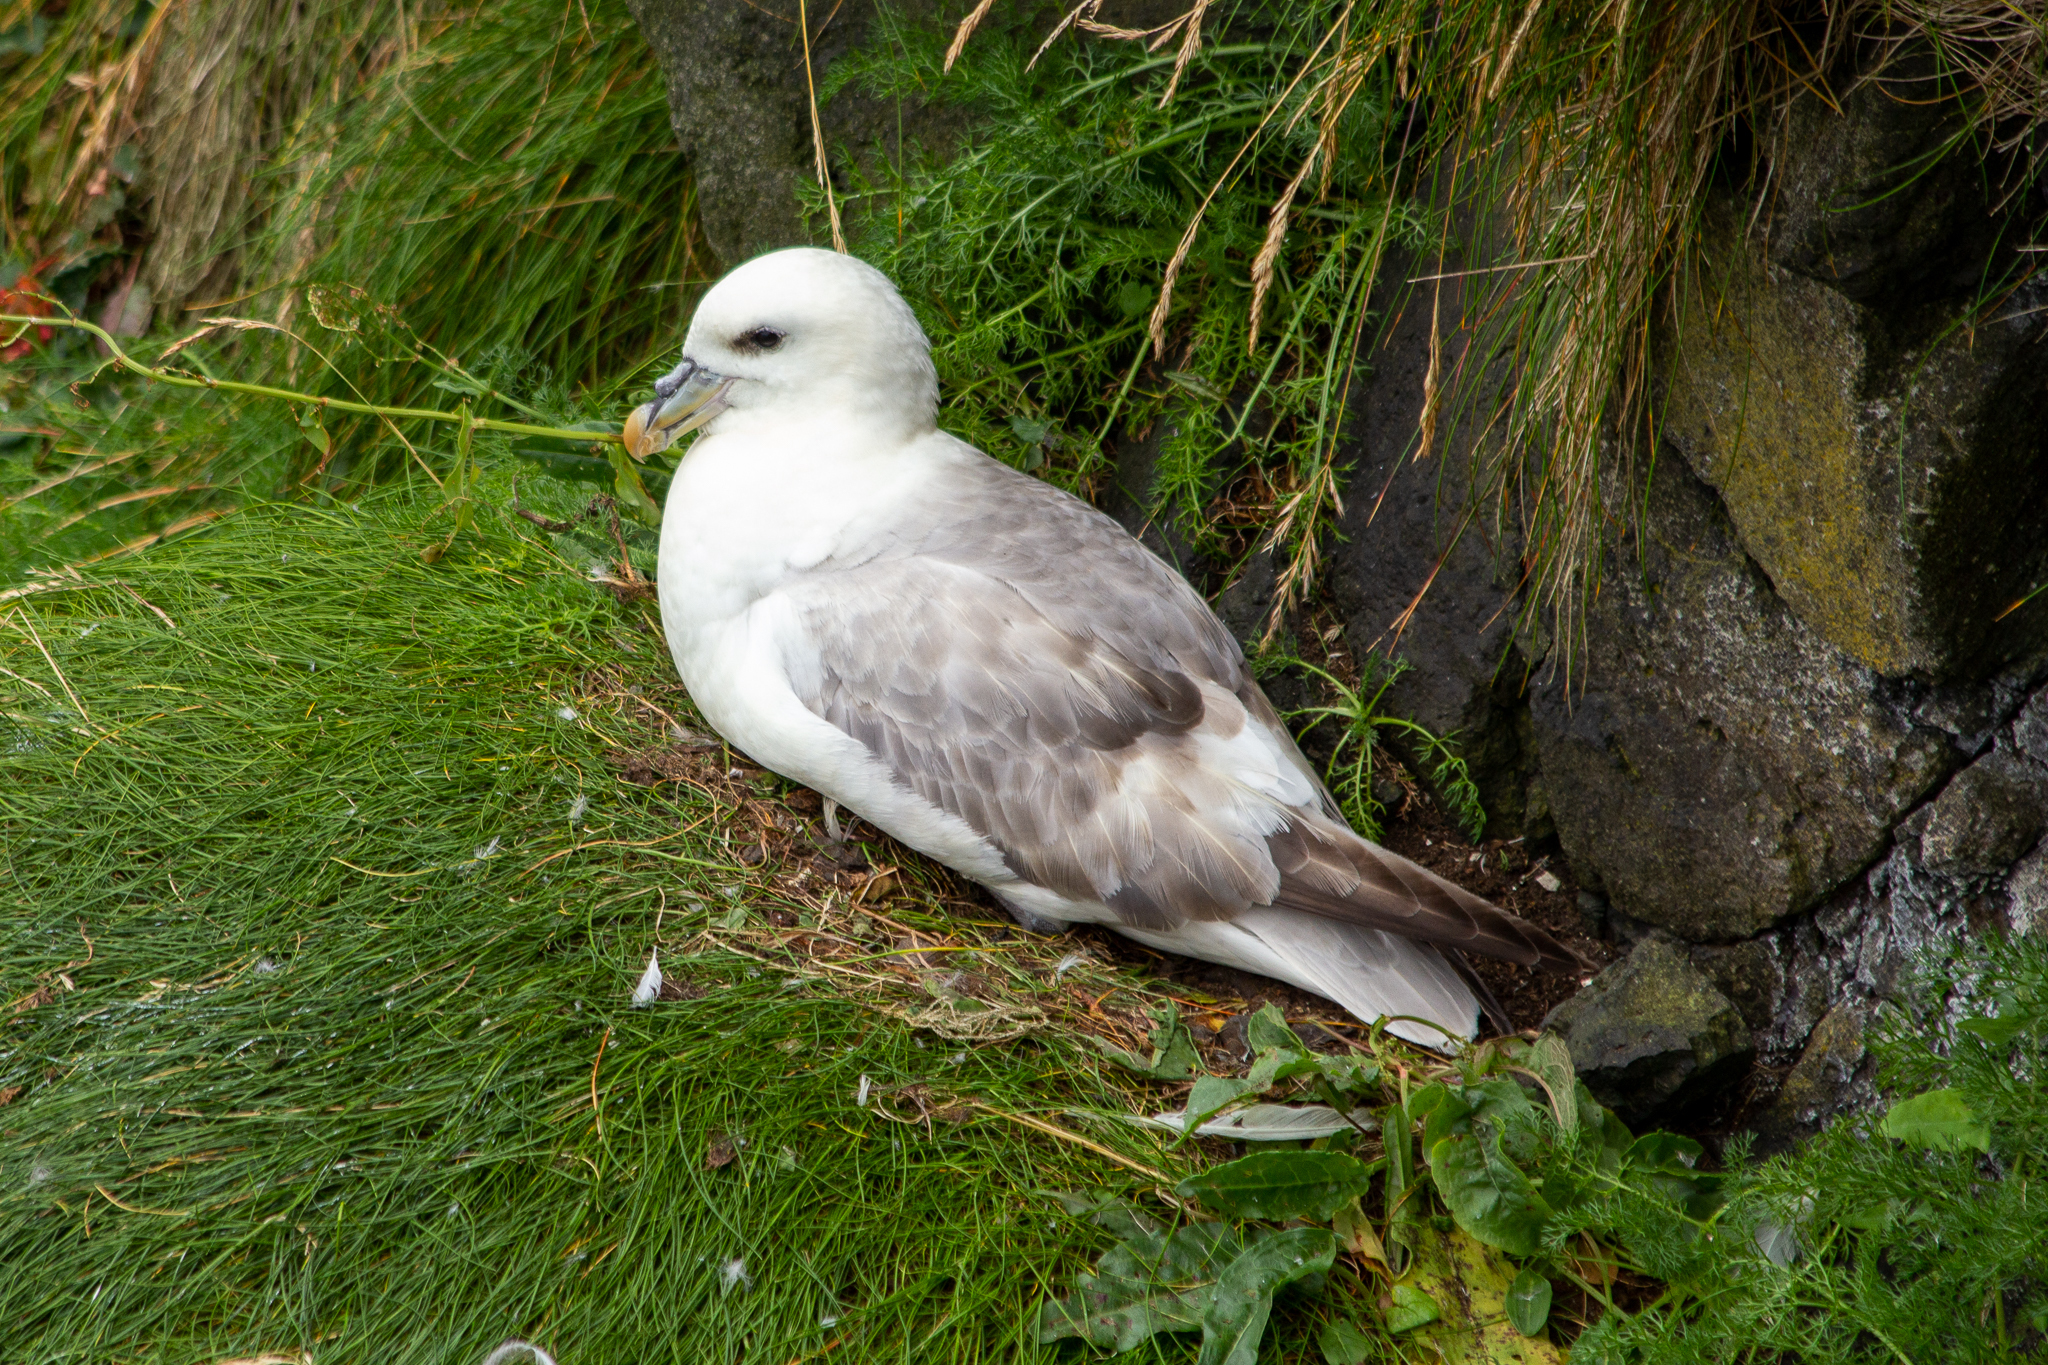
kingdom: Animalia
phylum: Chordata
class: Aves
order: Procellariiformes
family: Procellariidae
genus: Fulmarus
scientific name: Fulmarus glacialis
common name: Northern fulmar
